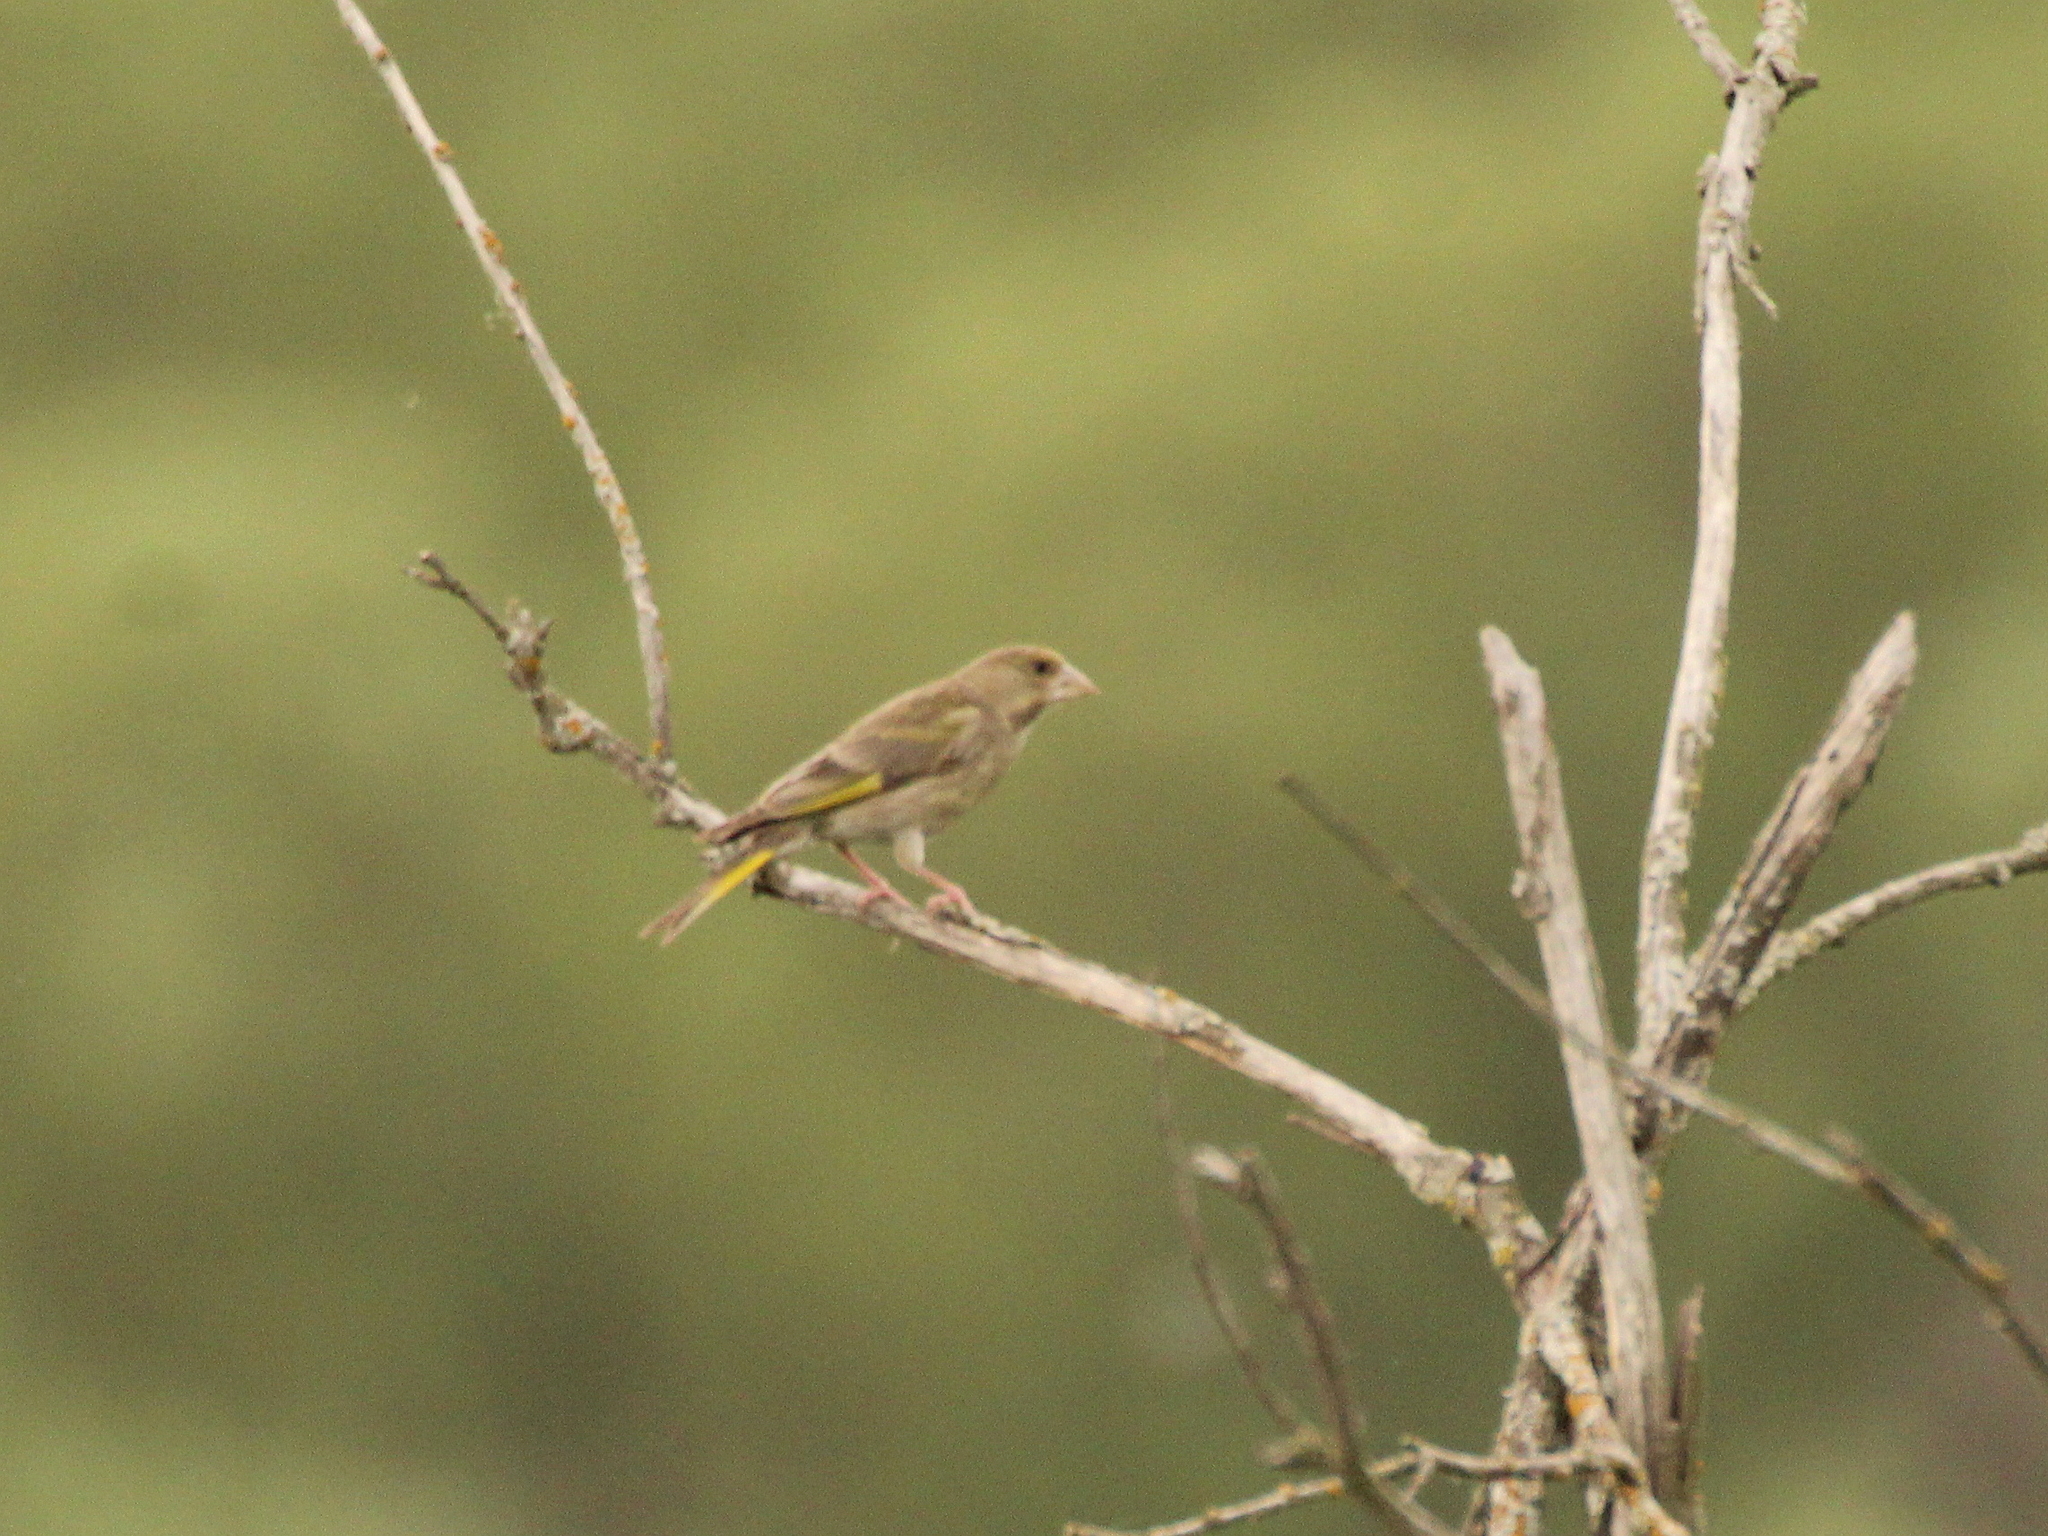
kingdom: Plantae
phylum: Tracheophyta
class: Liliopsida
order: Poales
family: Poaceae
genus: Chloris
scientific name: Chloris chloris
